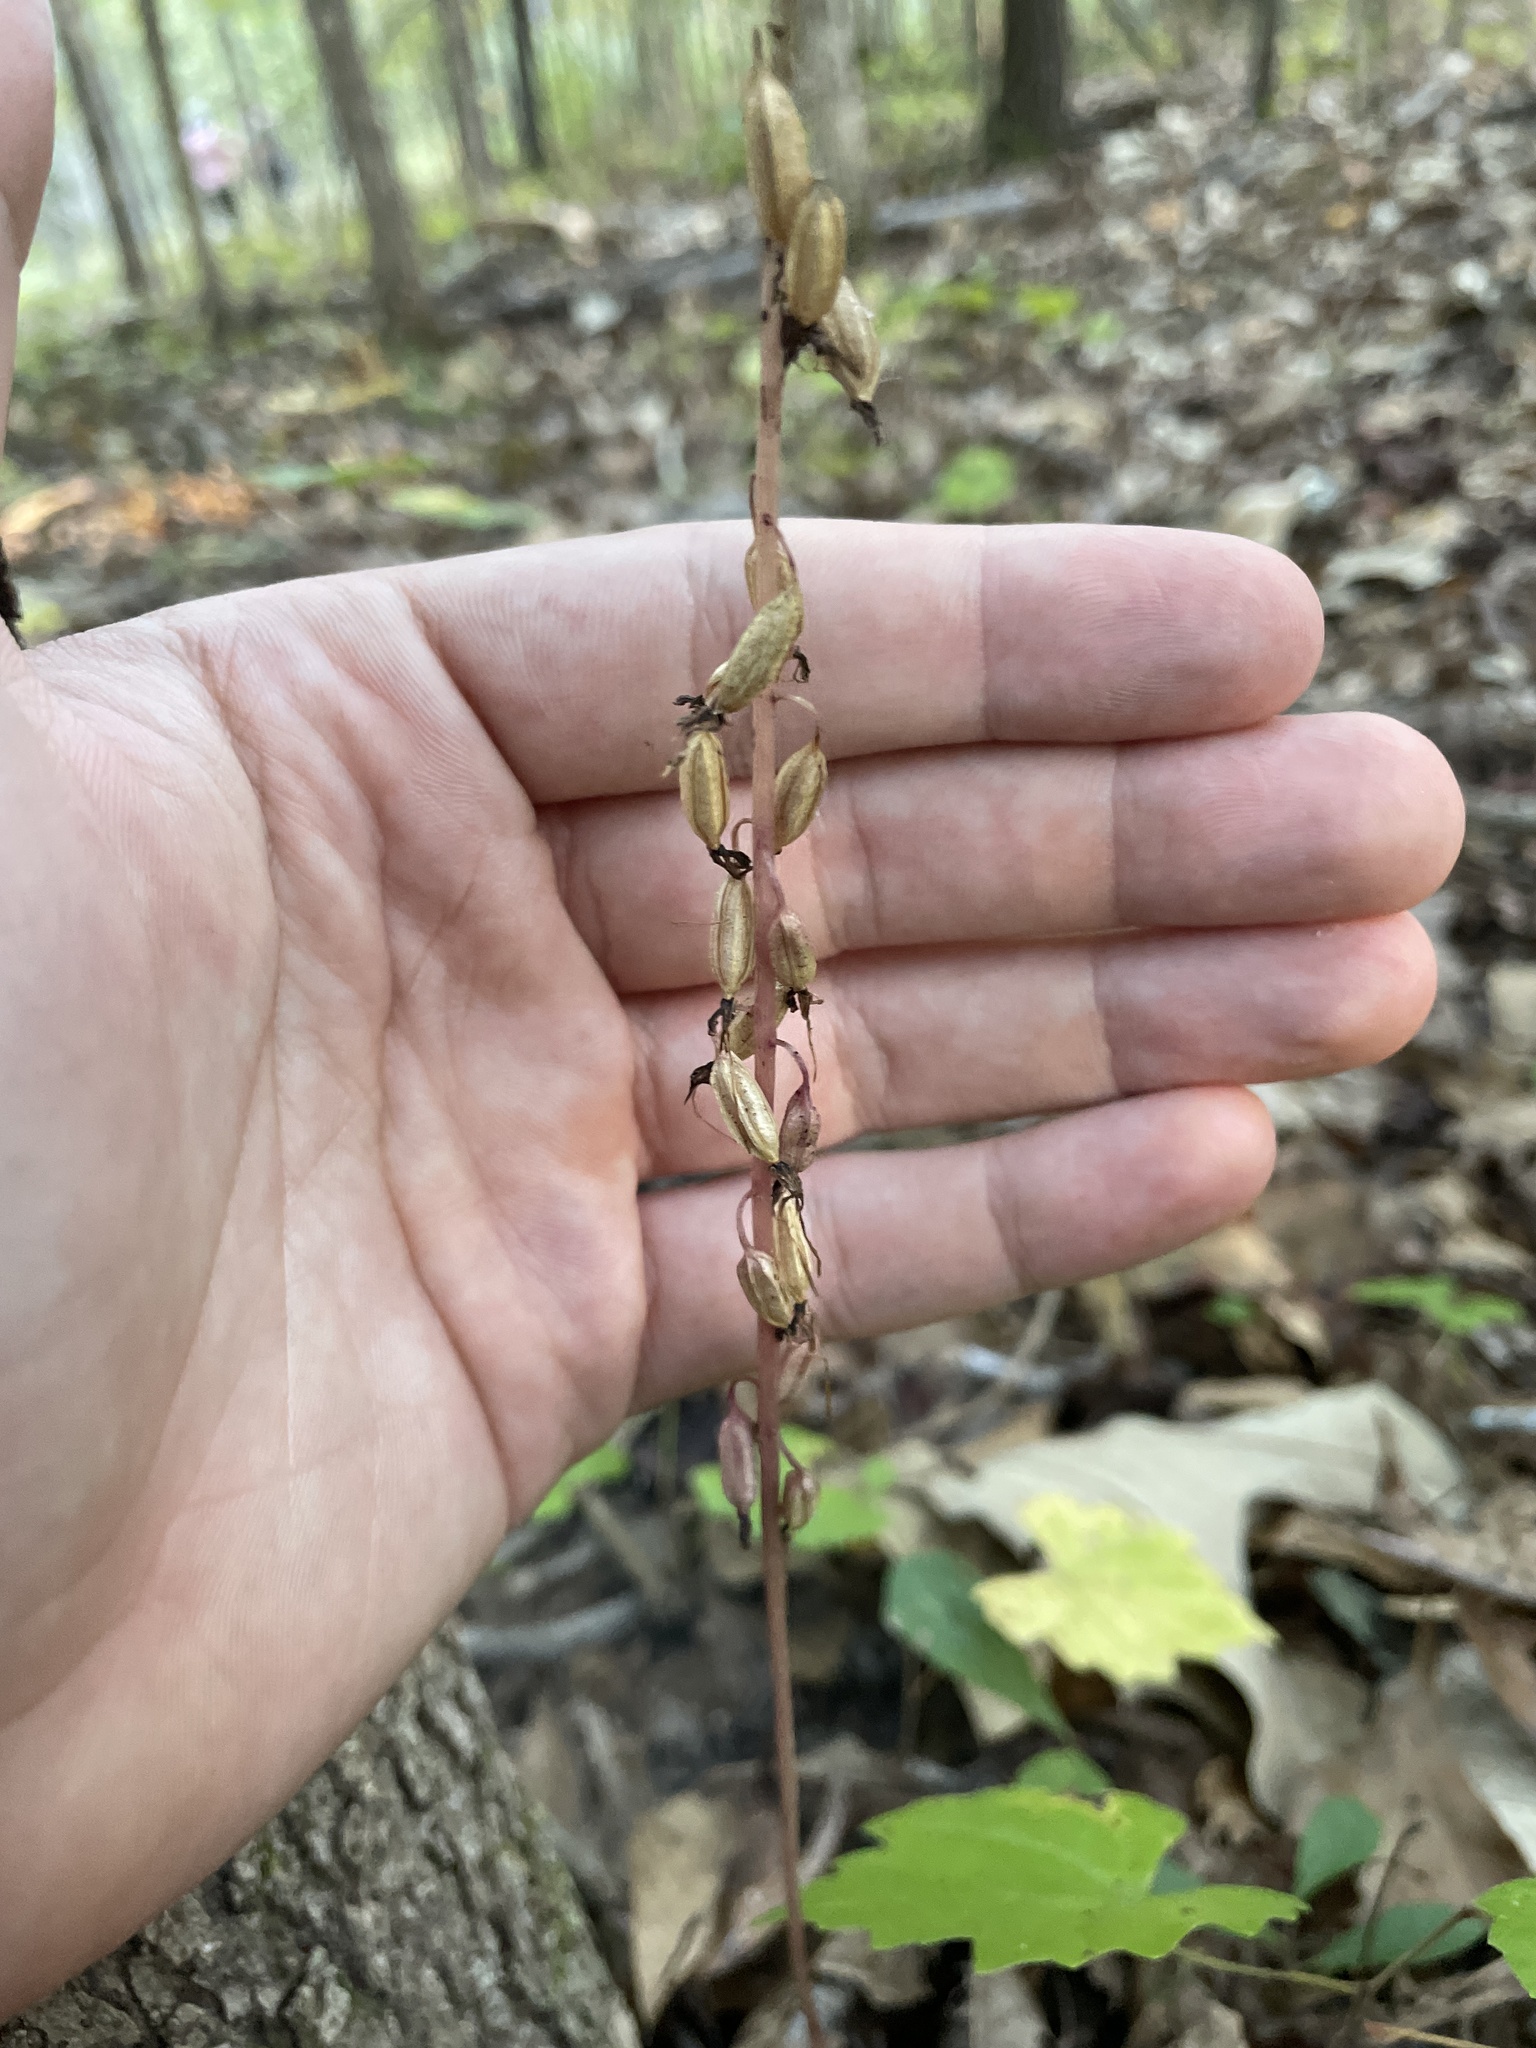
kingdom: Plantae
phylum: Tracheophyta
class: Liliopsida
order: Asparagales
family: Orchidaceae
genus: Tipularia
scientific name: Tipularia discolor
